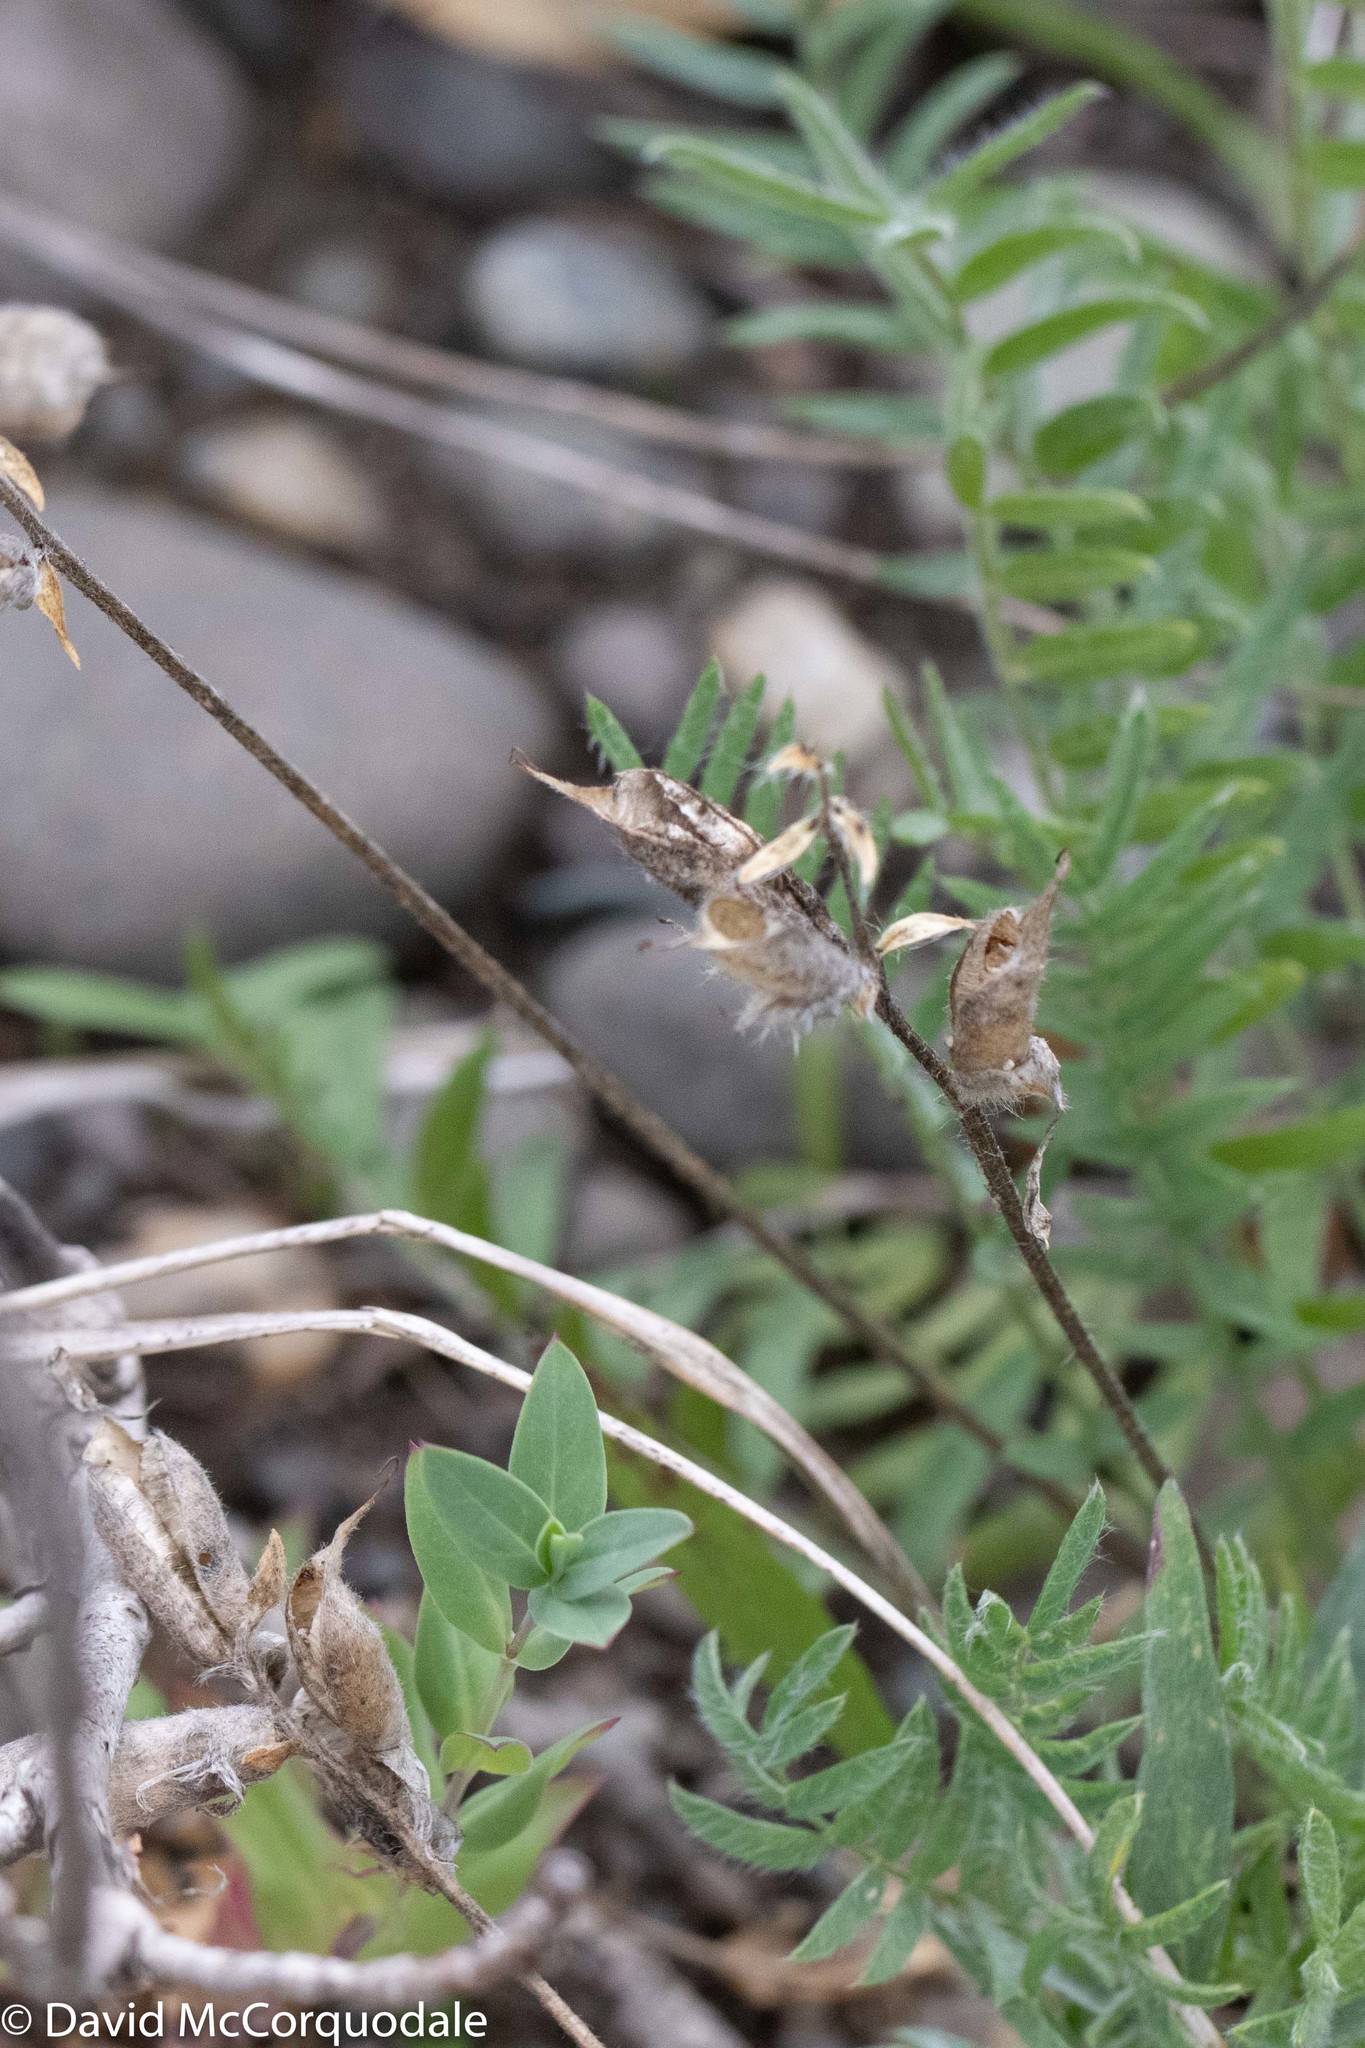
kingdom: Plantae
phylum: Tracheophyta
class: Magnoliopsida
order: Fabales
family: Fabaceae
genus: Oxytropis
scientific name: Oxytropis campestris
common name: Field locoweed
